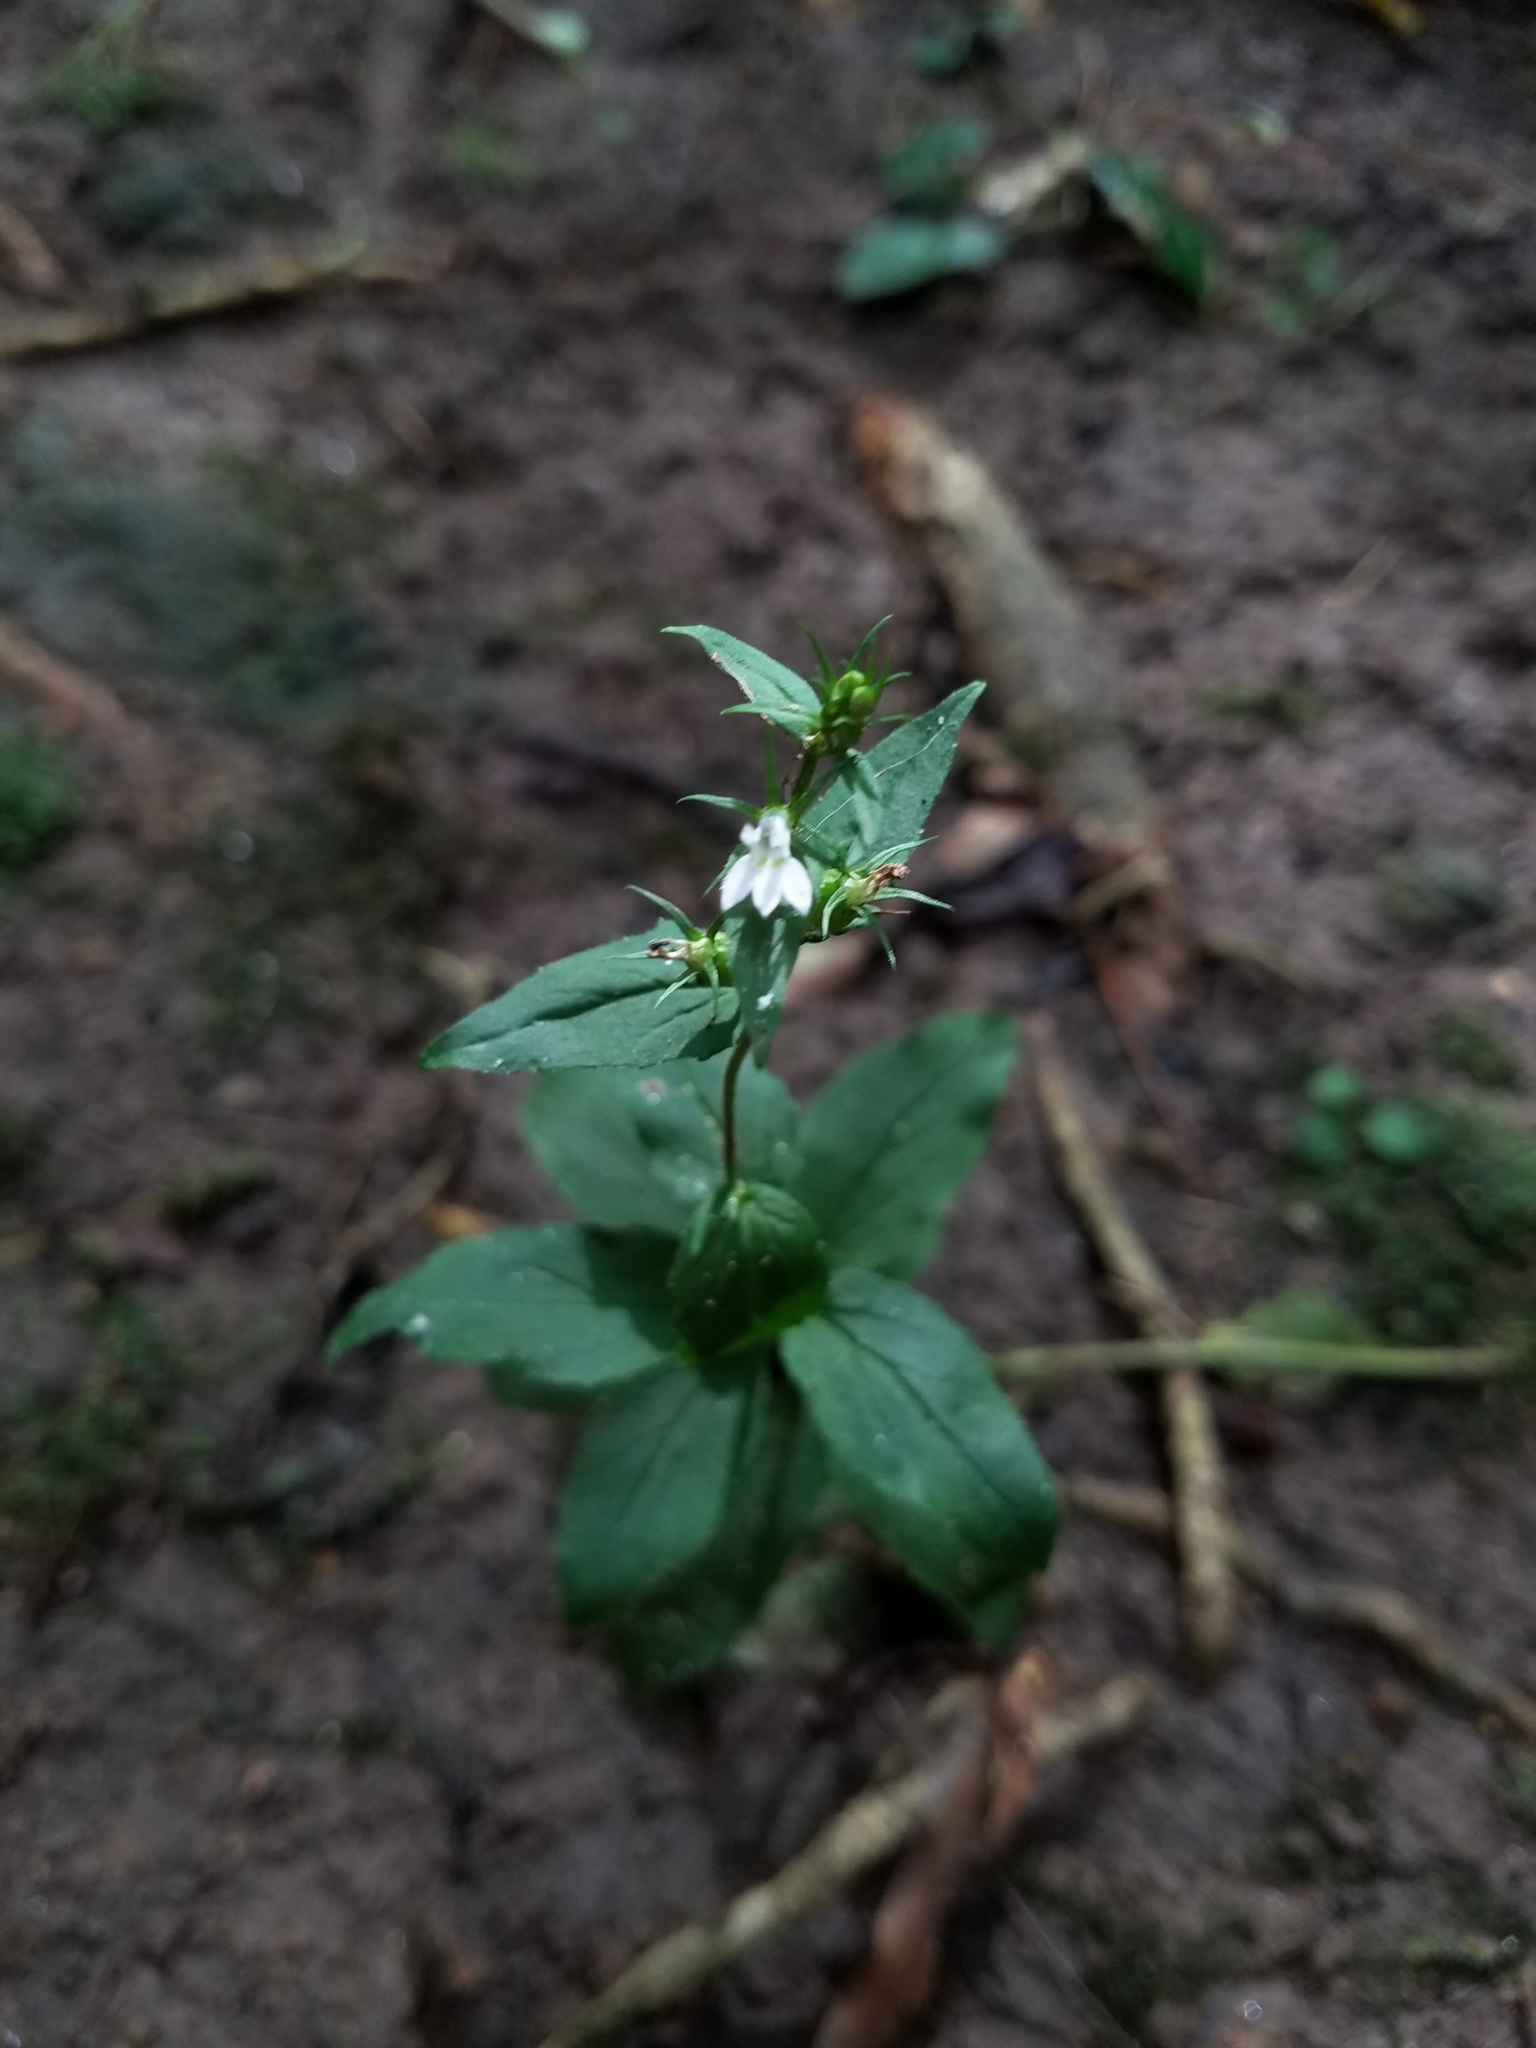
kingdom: Plantae
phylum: Tracheophyta
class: Magnoliopsida
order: Asterales
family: Campanulaceae
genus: Lobelia
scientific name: Lobelia inflata
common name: Indian tobacco
